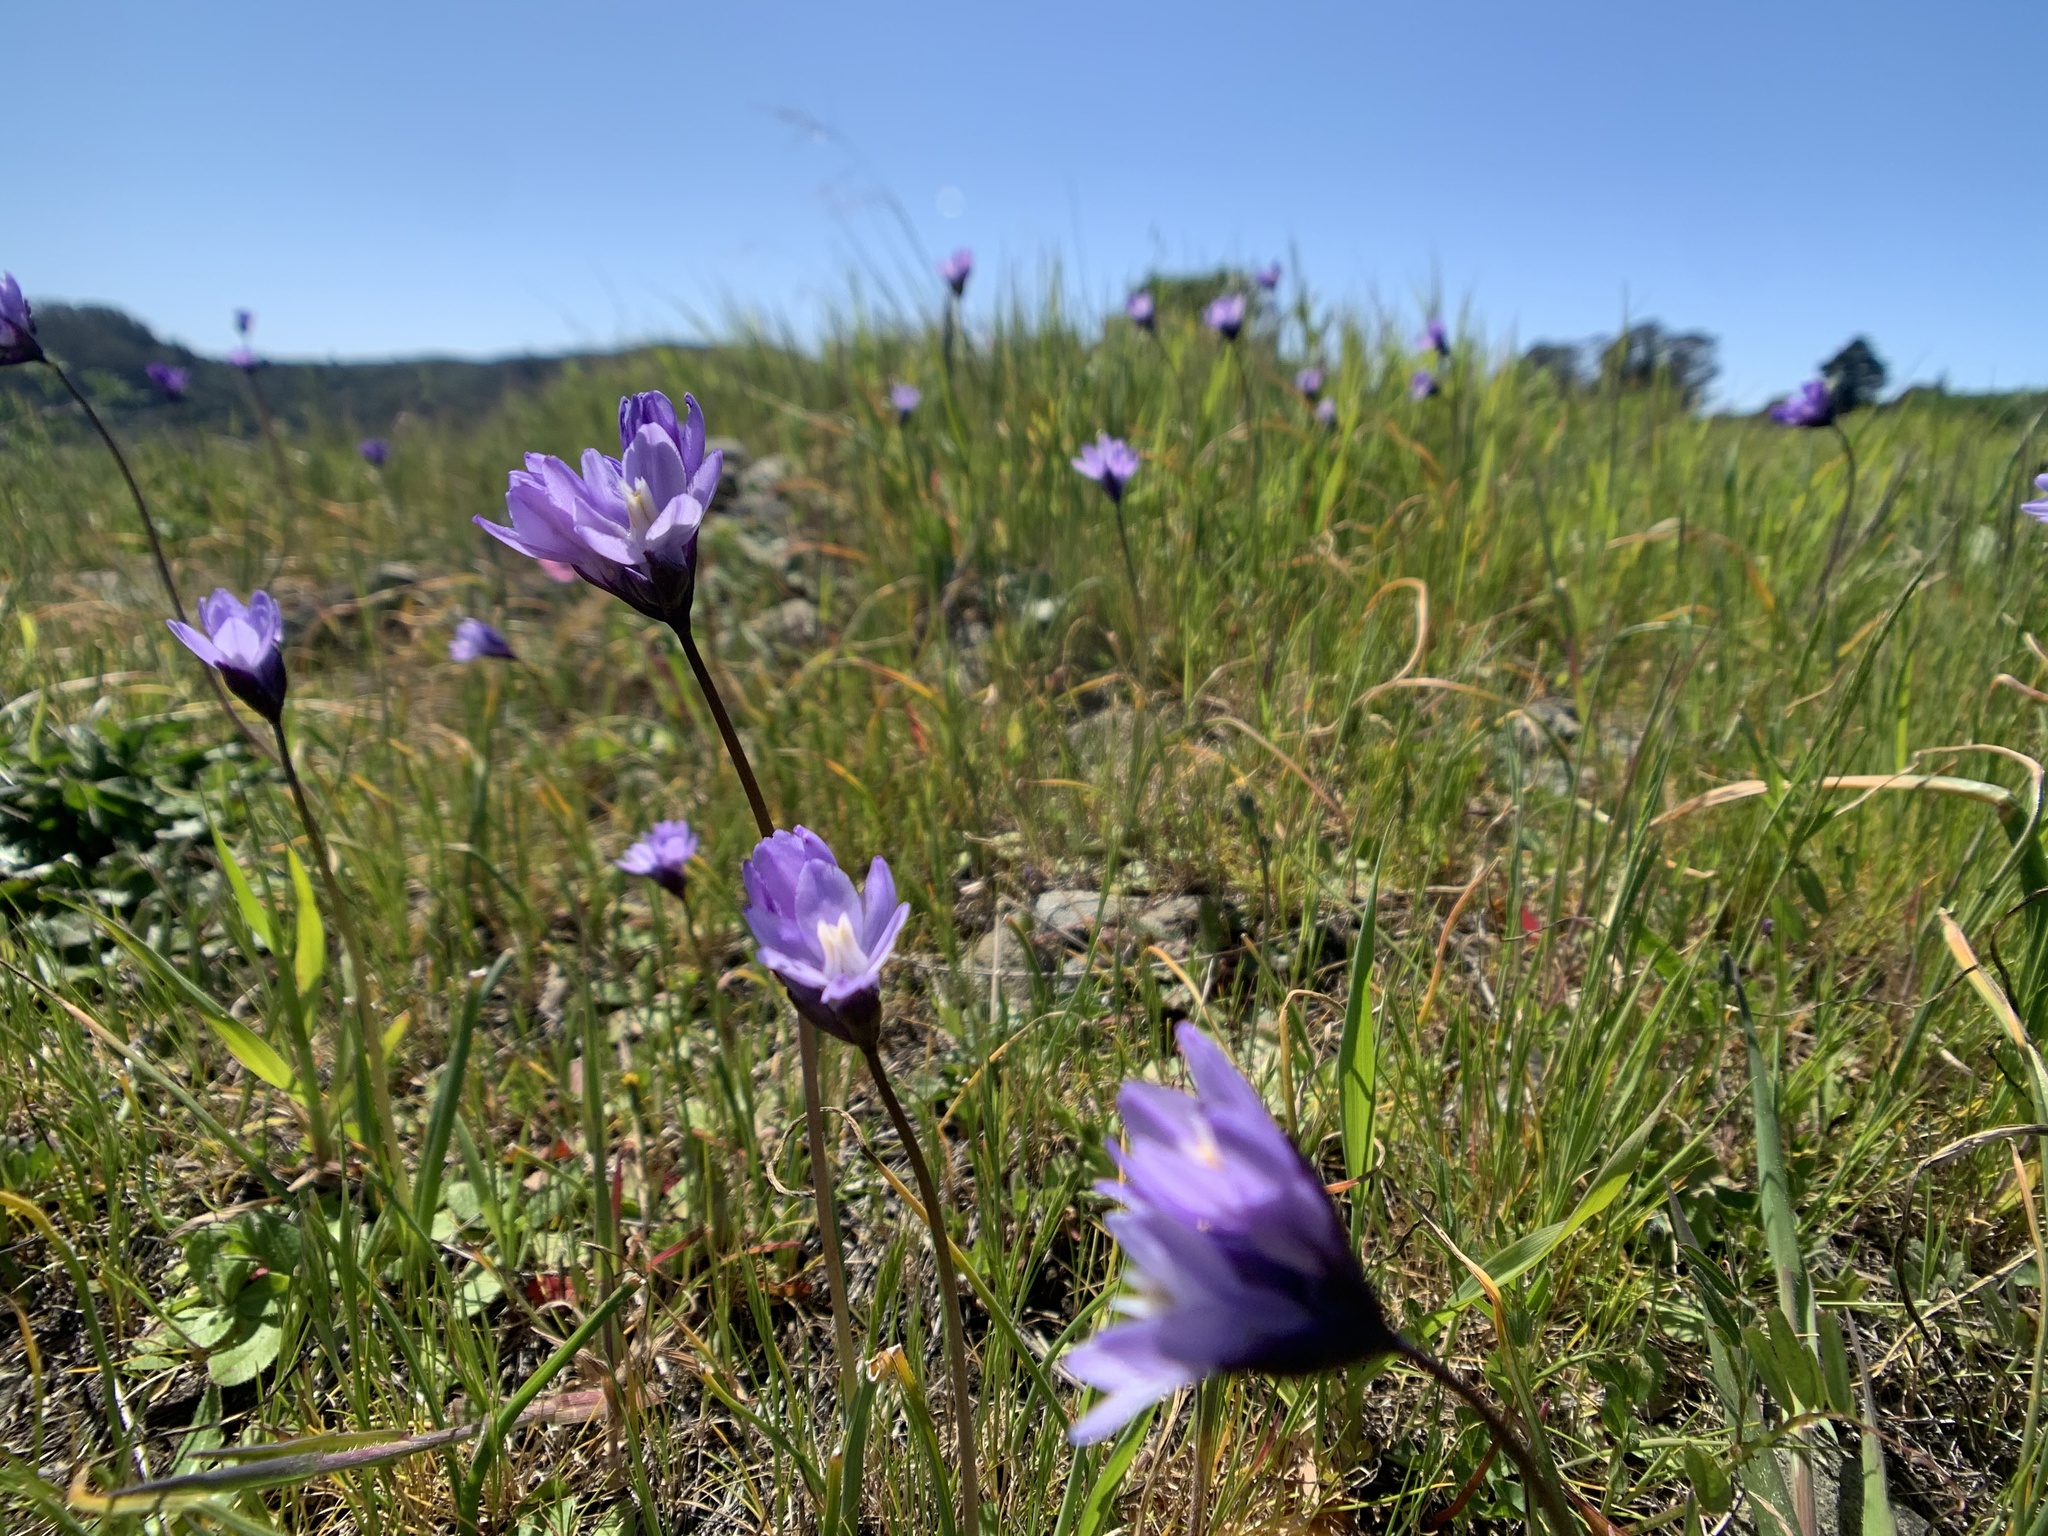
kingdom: Plantae
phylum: Tracheophyta
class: Liliopsida
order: Asparagales
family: Asparagaceae
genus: Dipterostemon
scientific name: Dipterostemon capitatus
